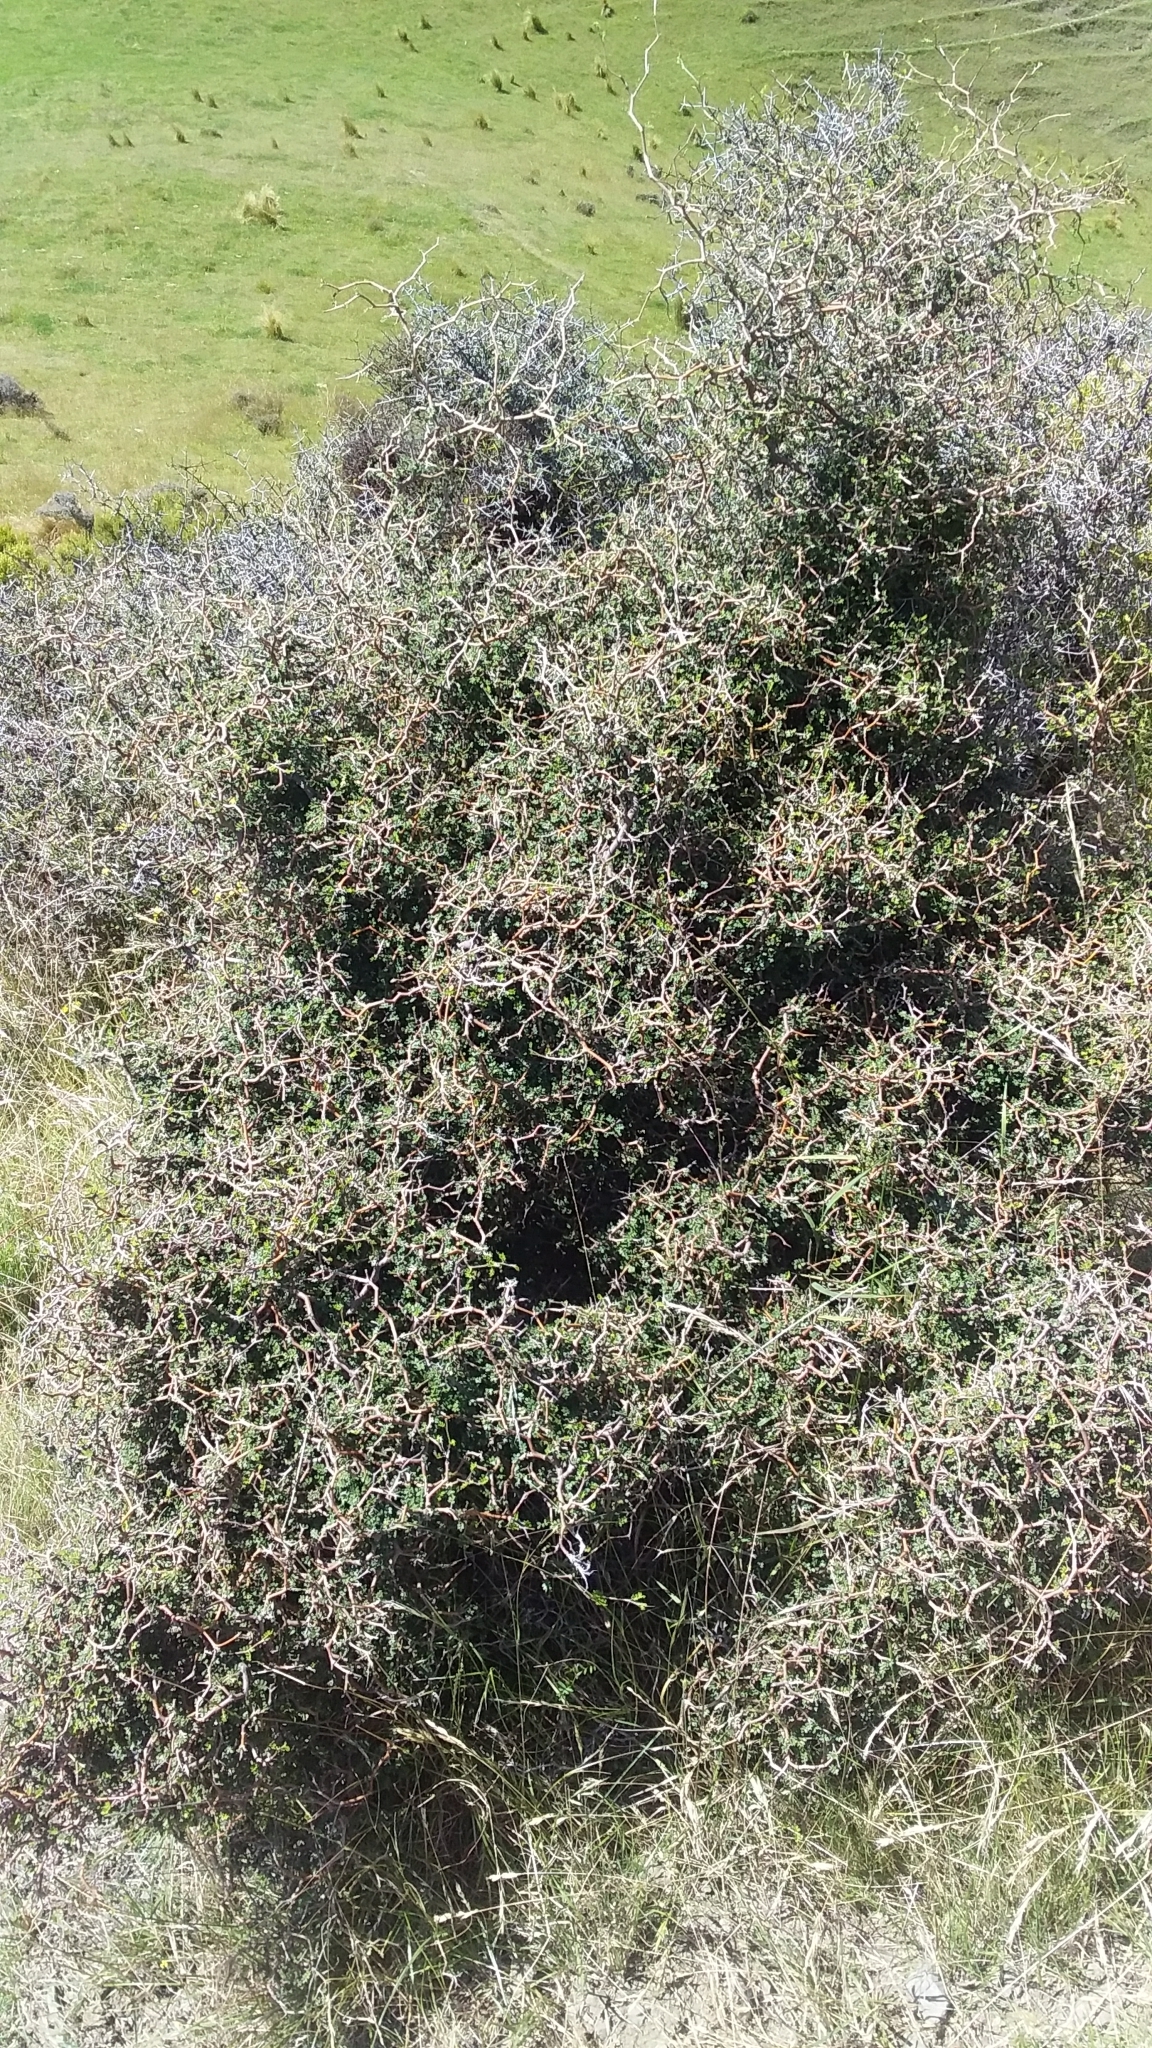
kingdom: Plantae
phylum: Tracheophyta
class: Magnoliopsida
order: Fabales
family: Fabaceae
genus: Sophora
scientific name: Sophora prostrata
